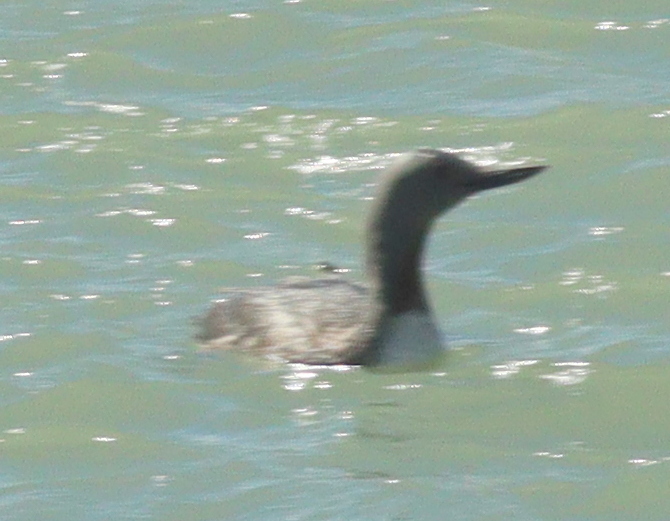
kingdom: Animalia
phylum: Chordata
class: Aves
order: Gaviiformes
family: Gaviidae
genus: Gavia
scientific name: Gavia stellata
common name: Red-throated loon
